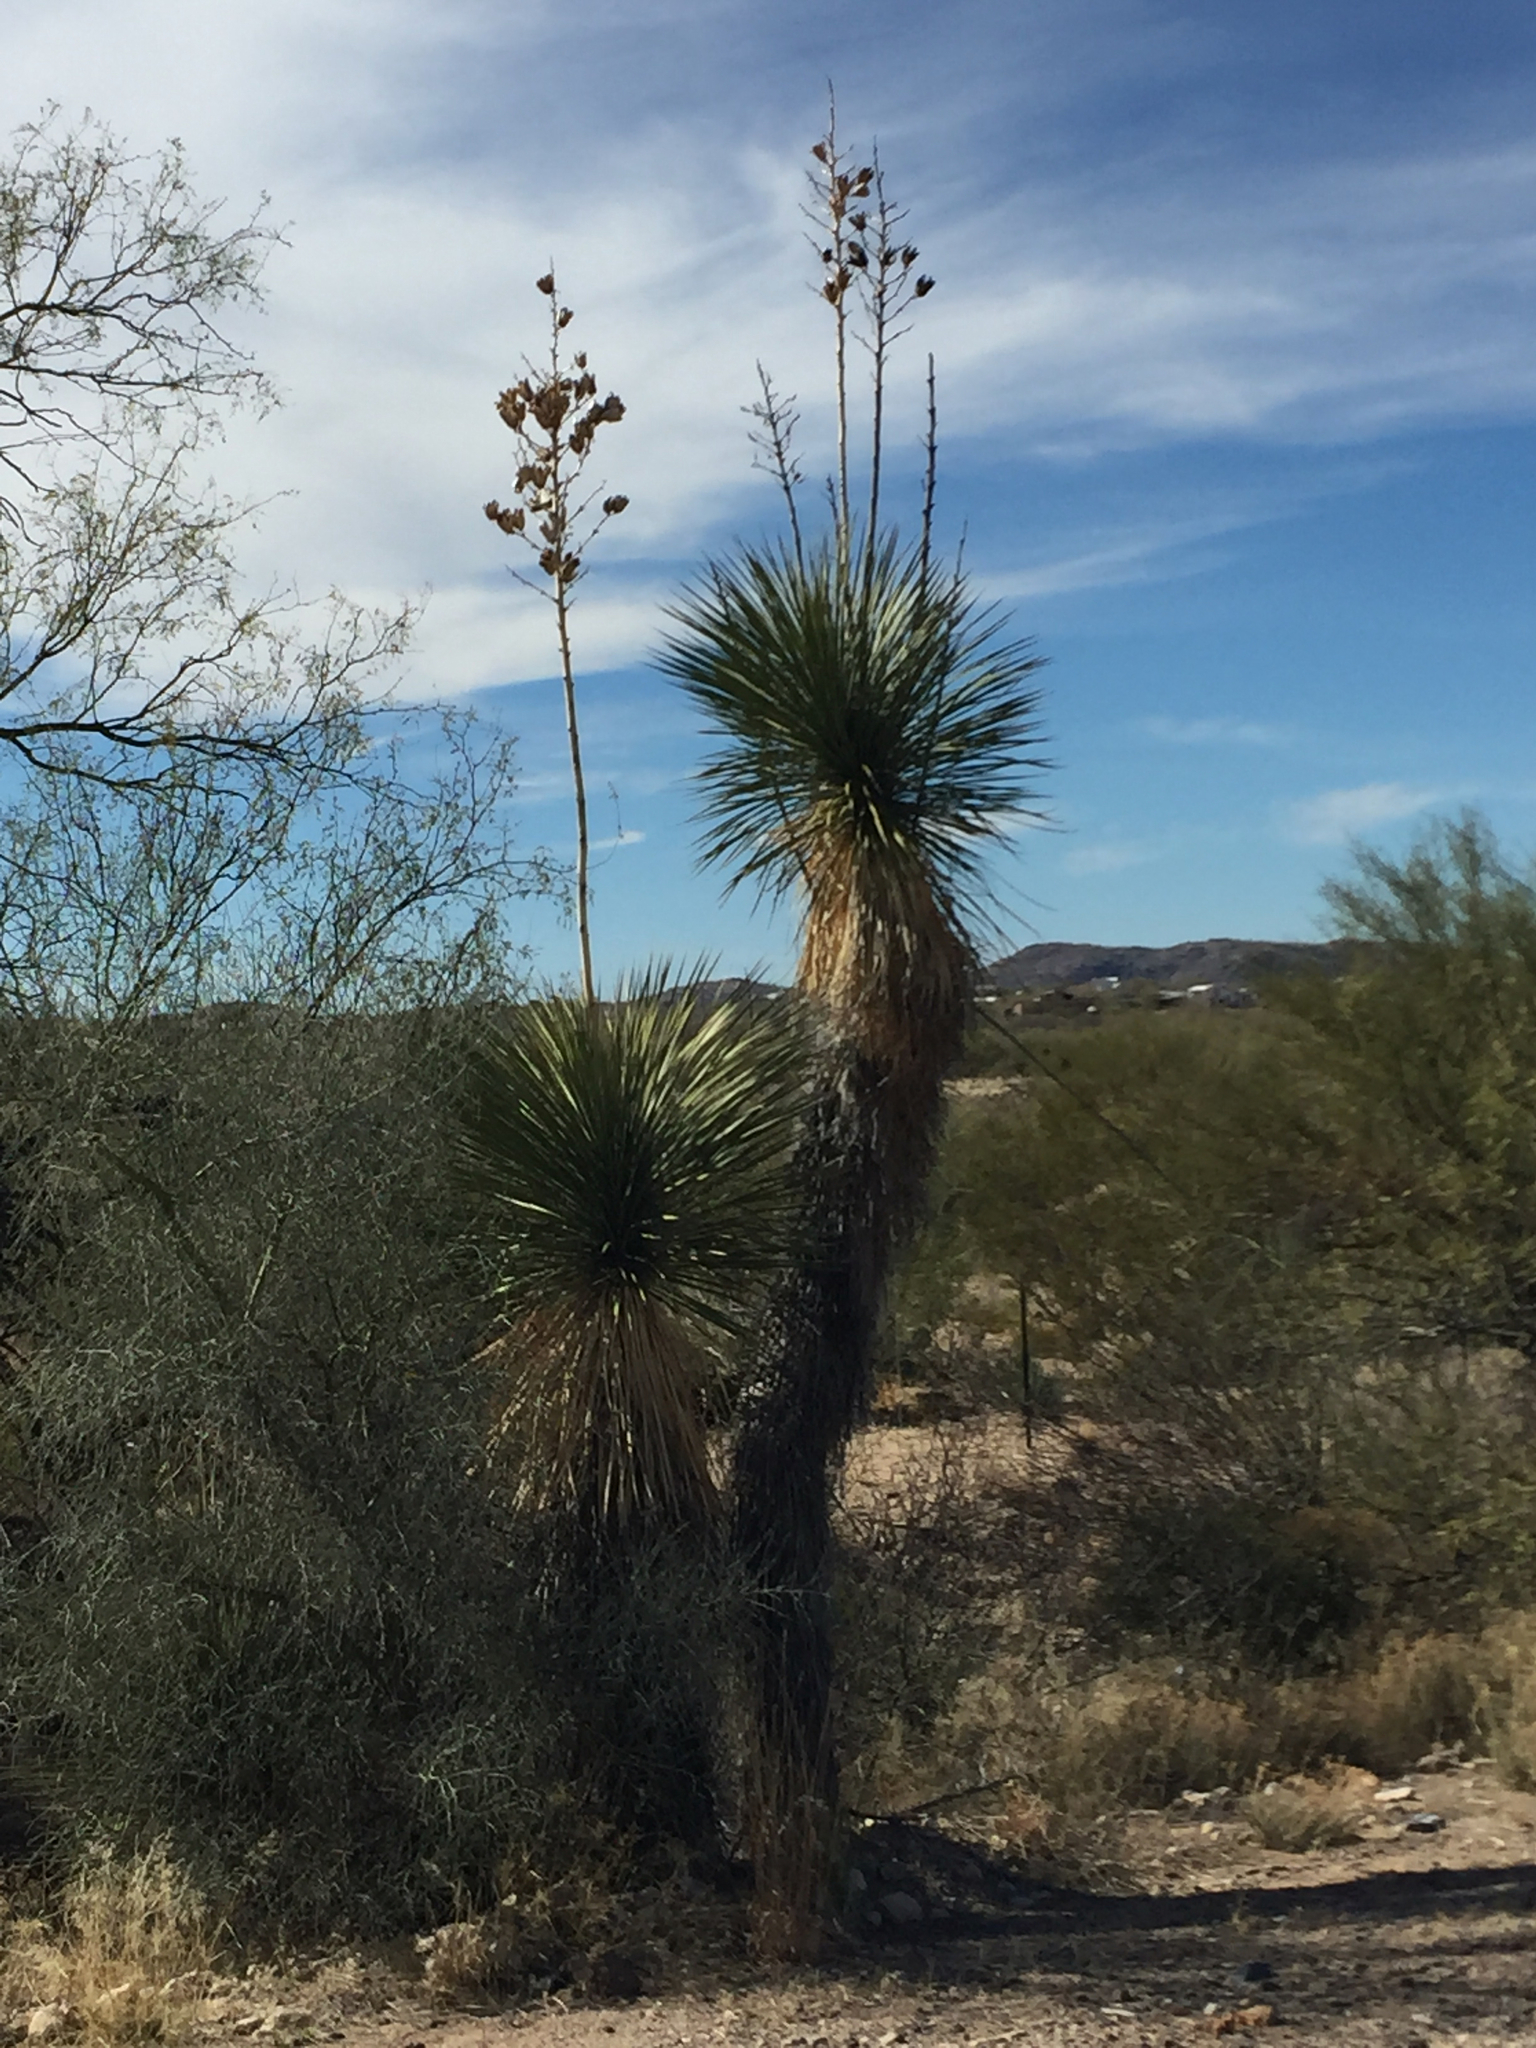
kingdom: Plantae
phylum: Tracheophyta
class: Liliopsida
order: Asparagales
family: Asparagaceae
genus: Yucca
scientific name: Yucca elata
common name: Palmella
